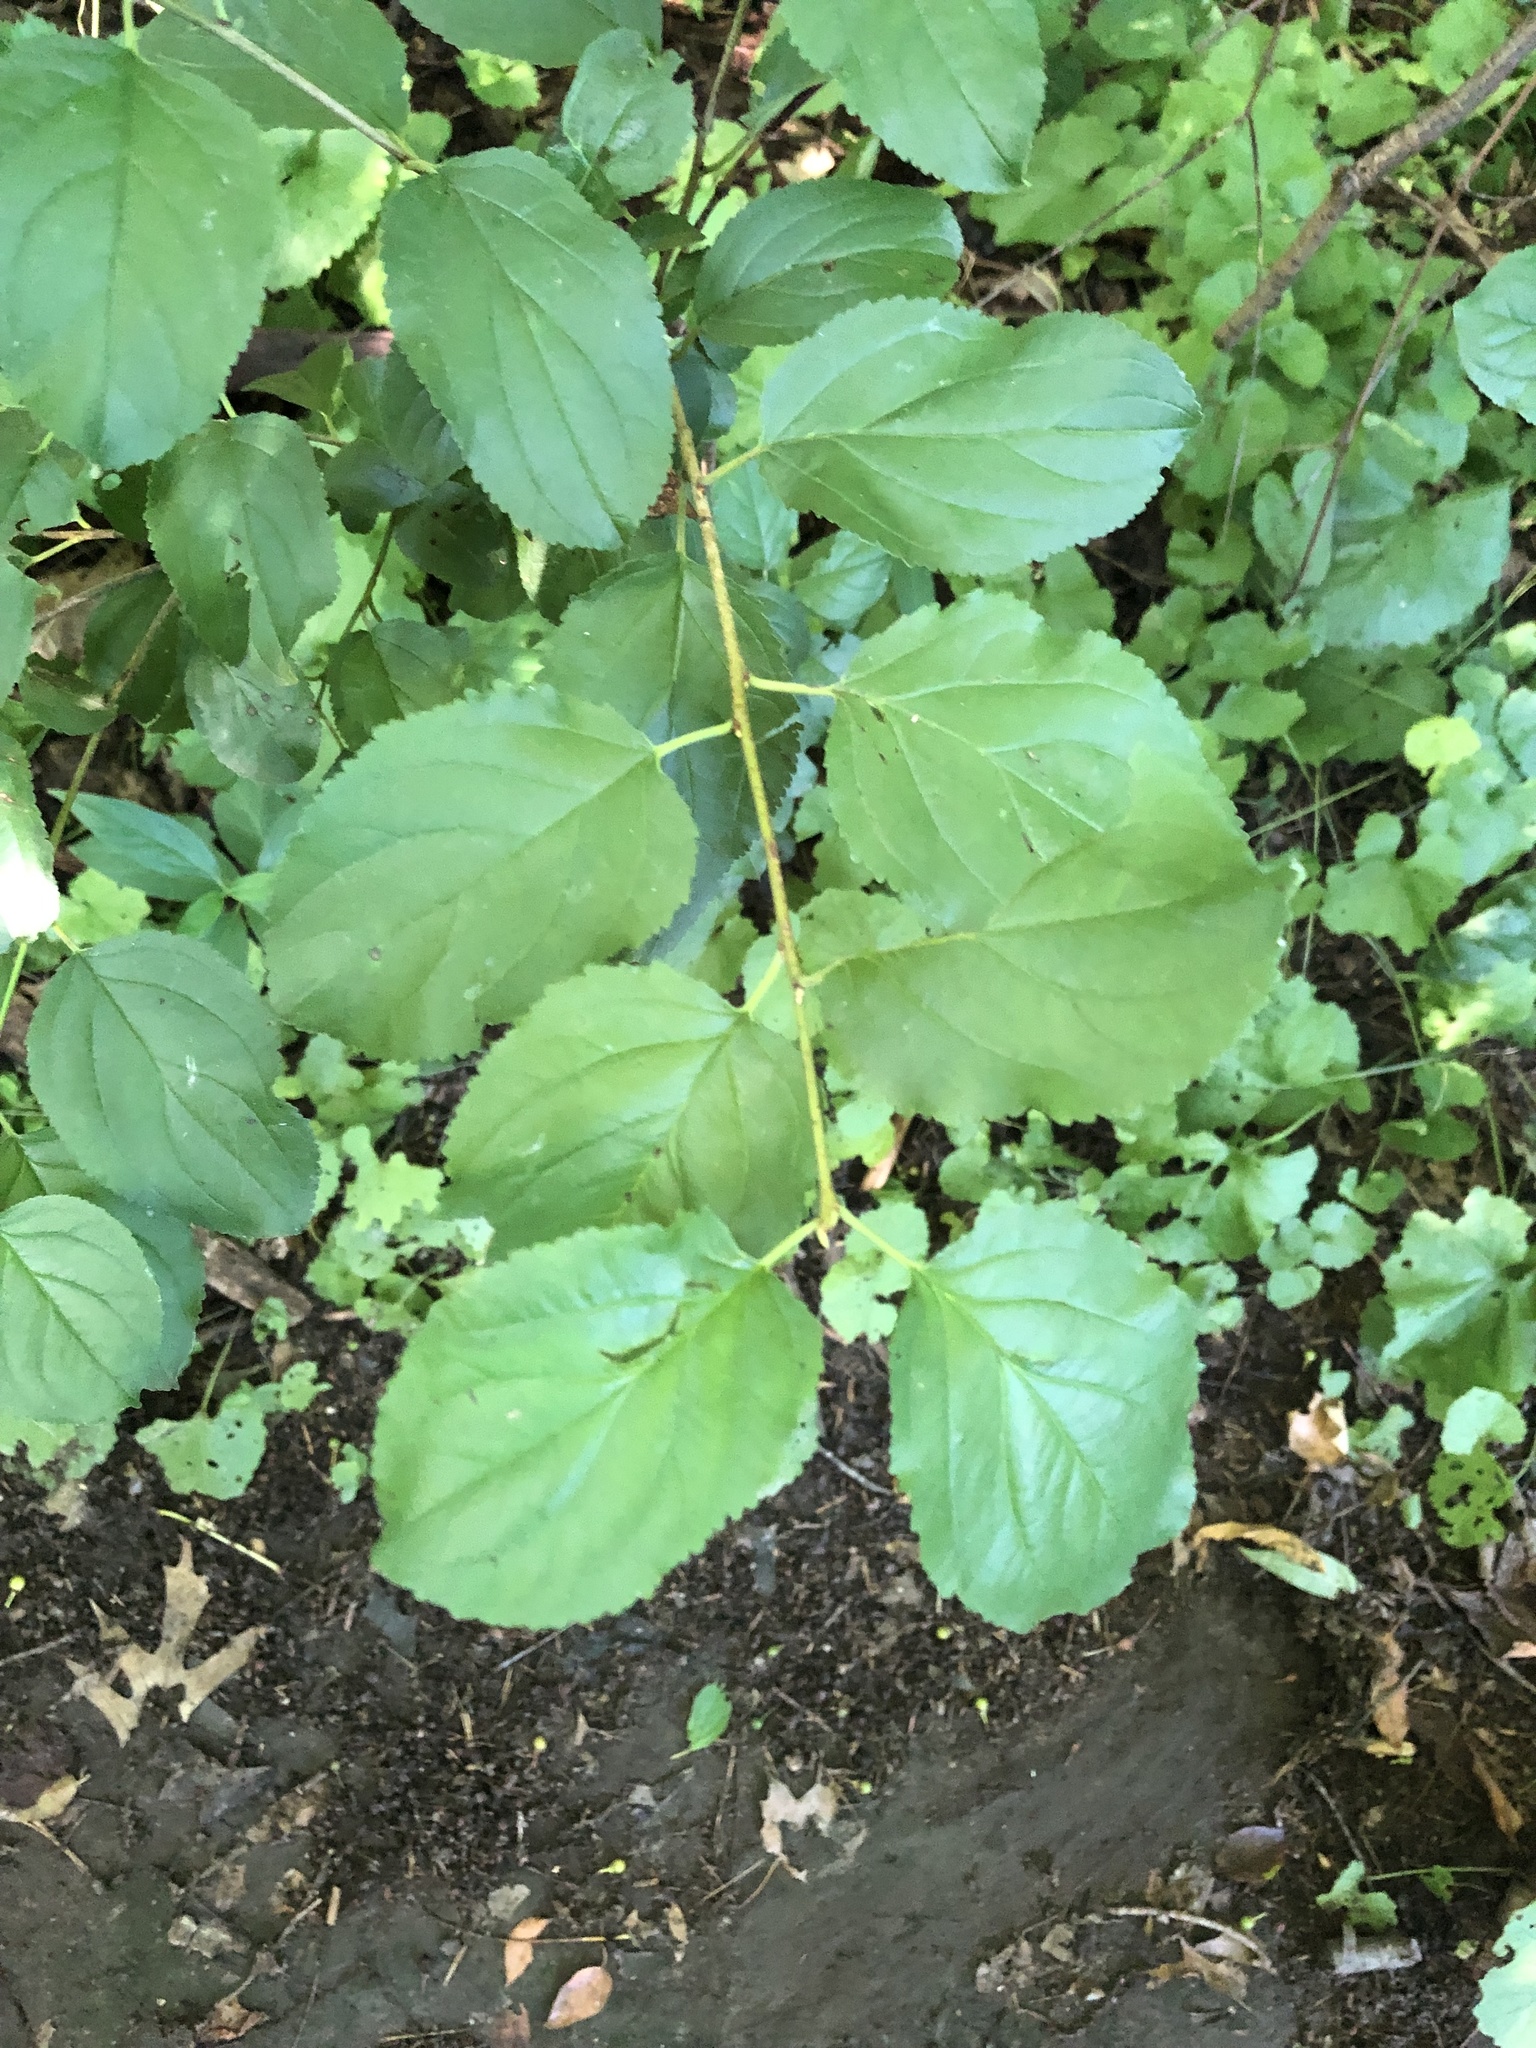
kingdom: Plantae
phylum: Tracheophyta
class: Magnoliopsida
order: Rosales
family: Rhamnaceae
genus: Rhamnus
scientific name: Rhamnus cathartica
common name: Common buckthorn
